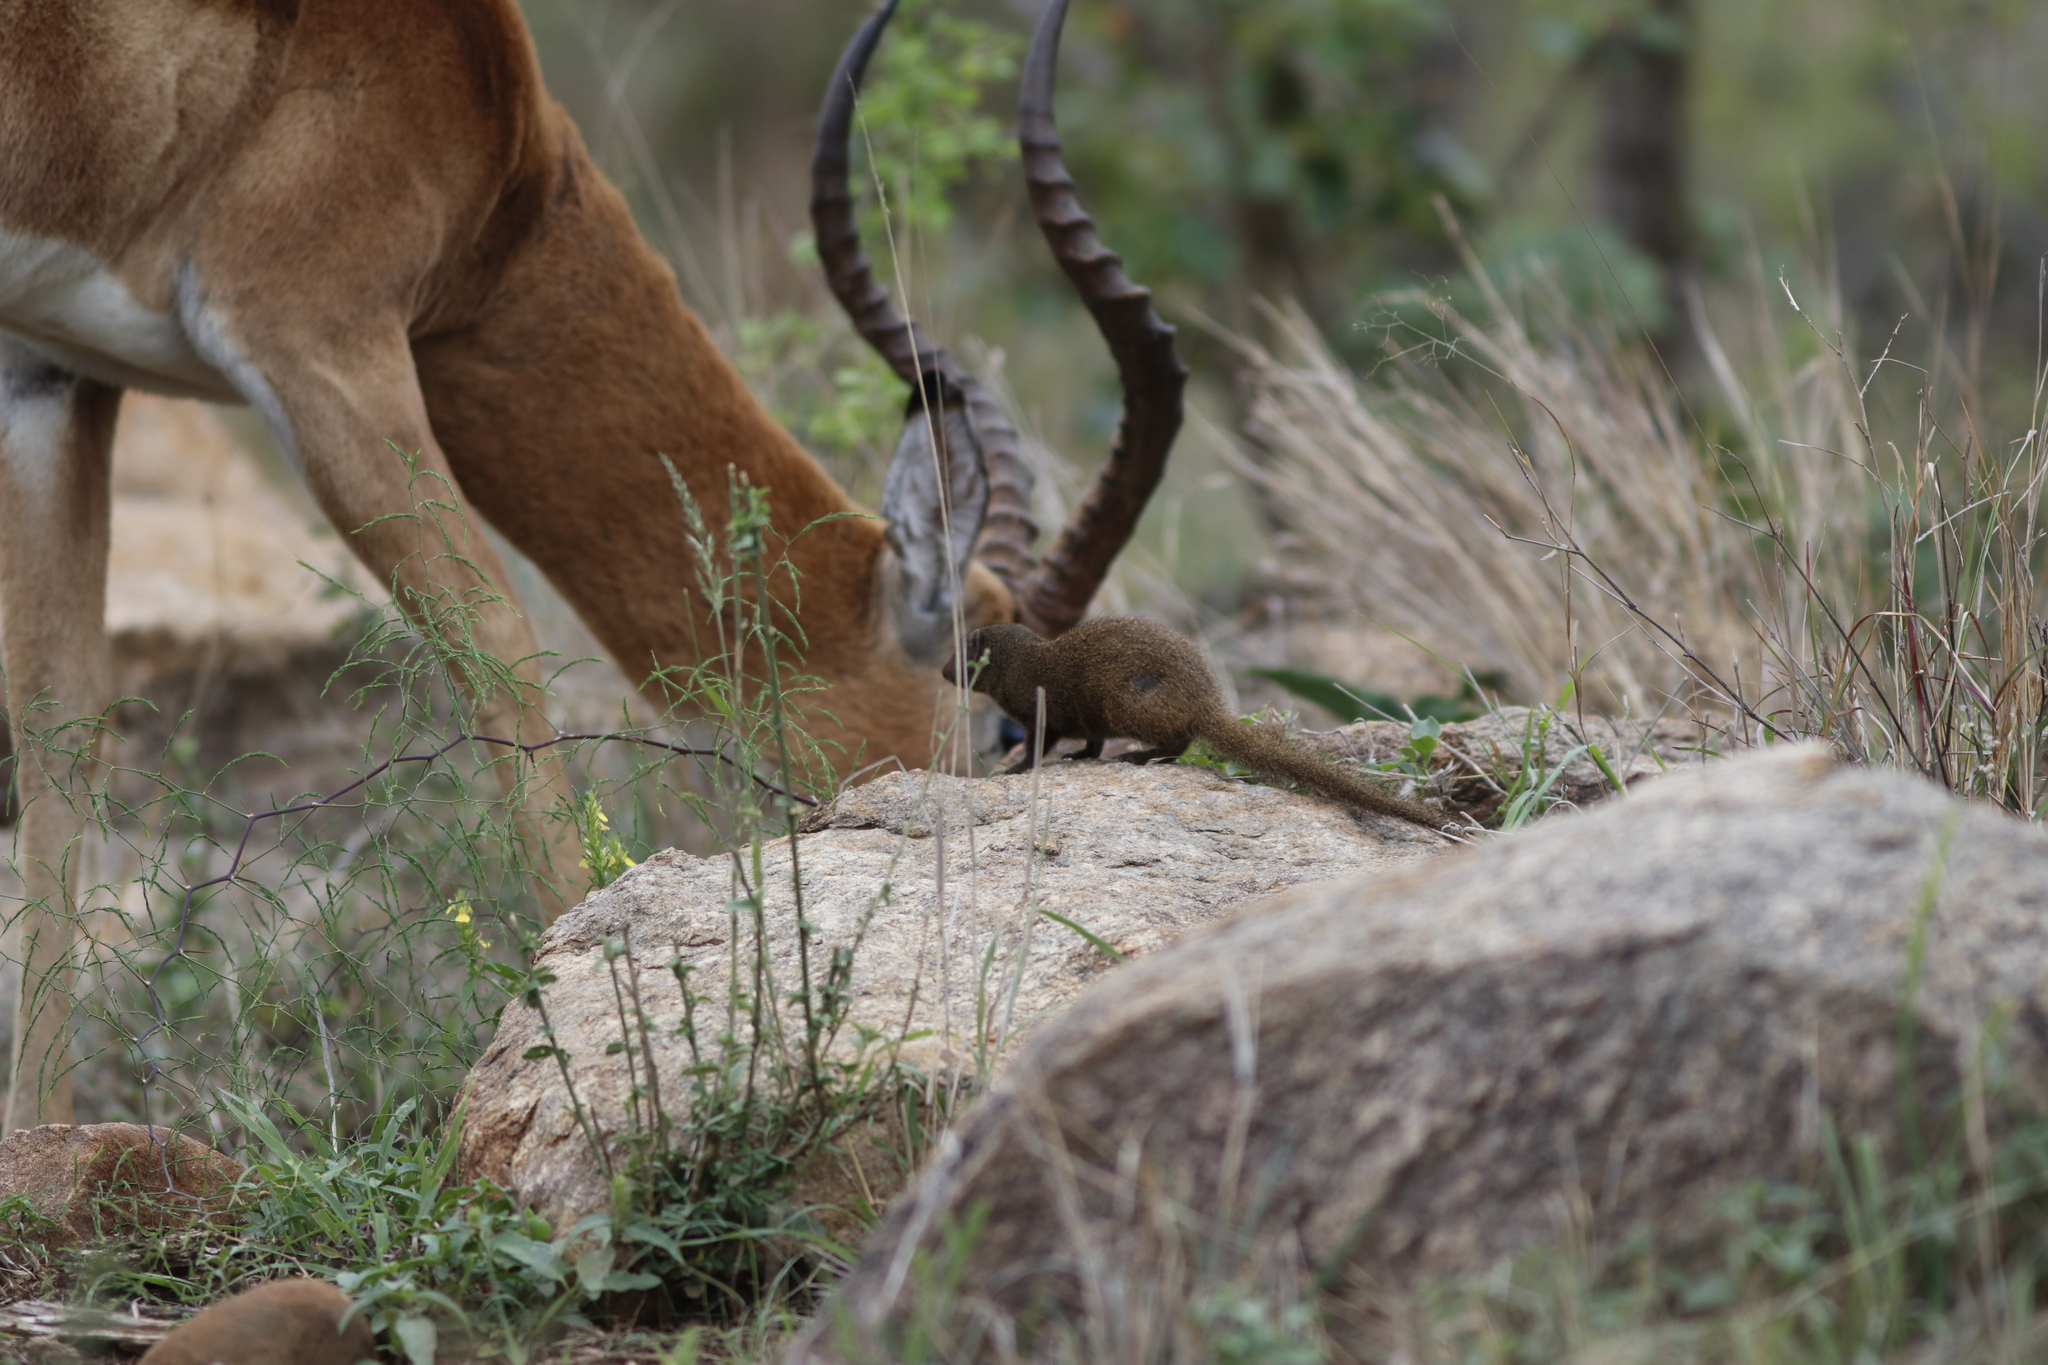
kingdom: Animalia
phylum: Chordata
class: Mammalia
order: Carnivora
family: Herpestidae
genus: Helogale
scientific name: Helogale parvula
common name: Common dwarf mongoose
